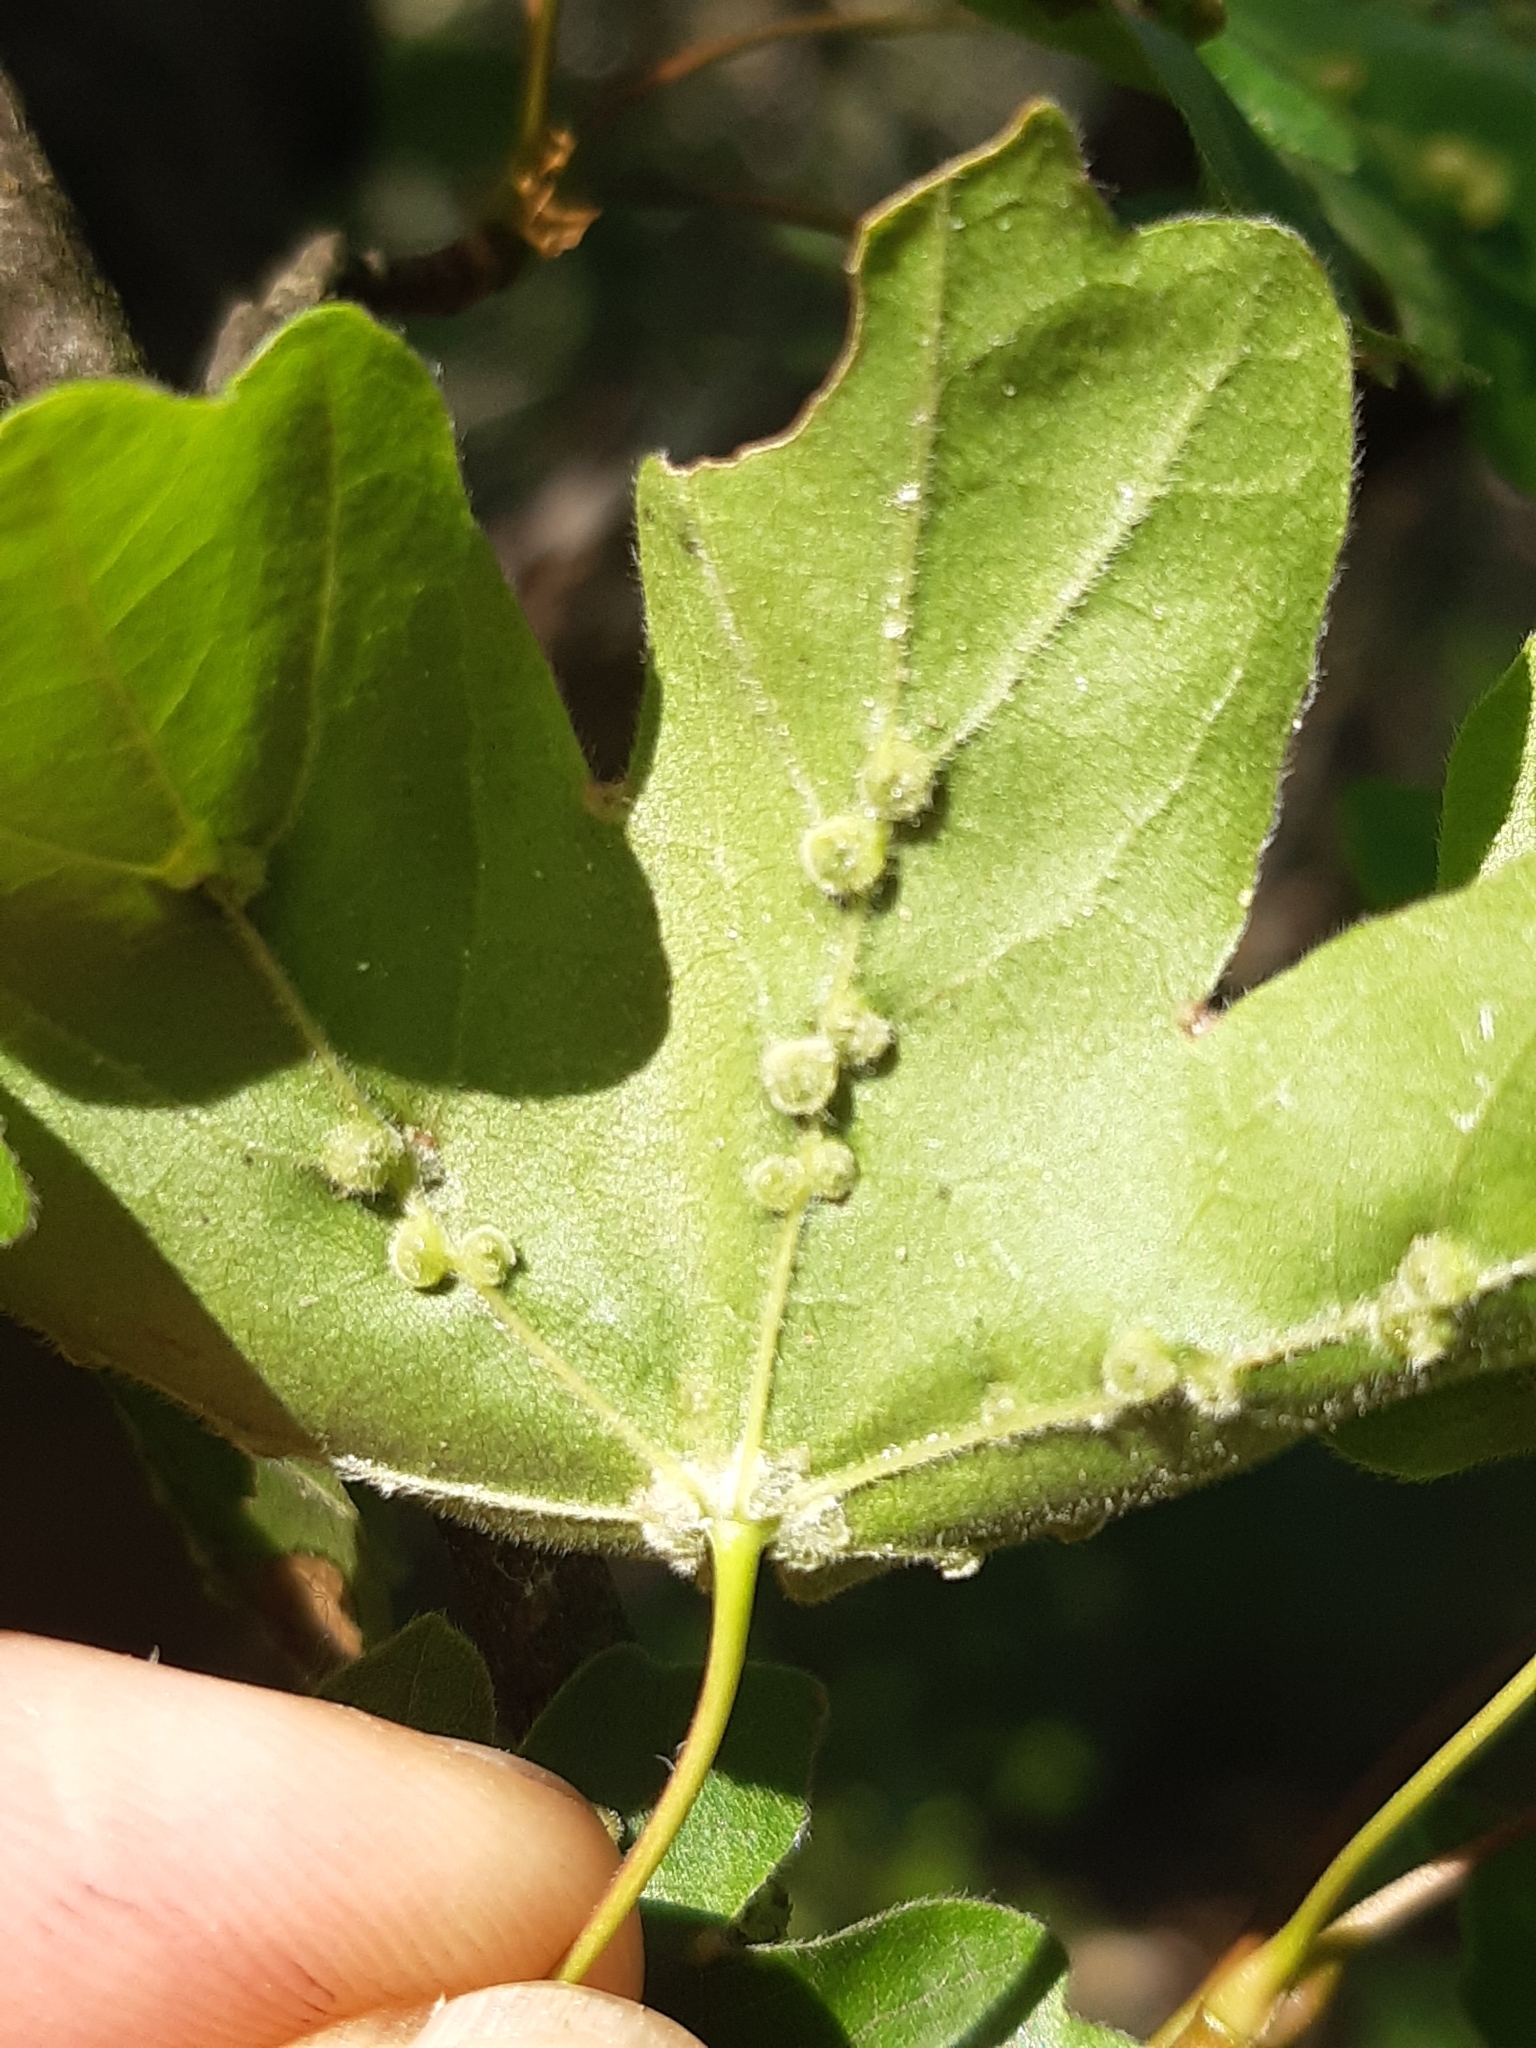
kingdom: Animalia
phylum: Arthropoda
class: Arachnida
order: Trombidiformes
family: Eriophyidae
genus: Aceria
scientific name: Aceria macrochelus
